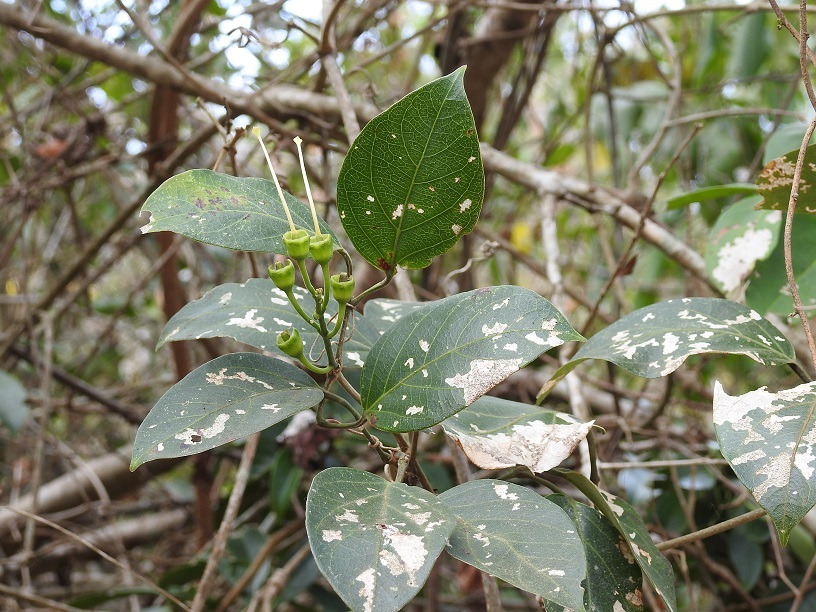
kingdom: Plantae
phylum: Tracheophyta
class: Magnoliopsida
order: Lamiales
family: Bignoniaceae
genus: Anemopaegma
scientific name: Anemopaegma chrysanthum
